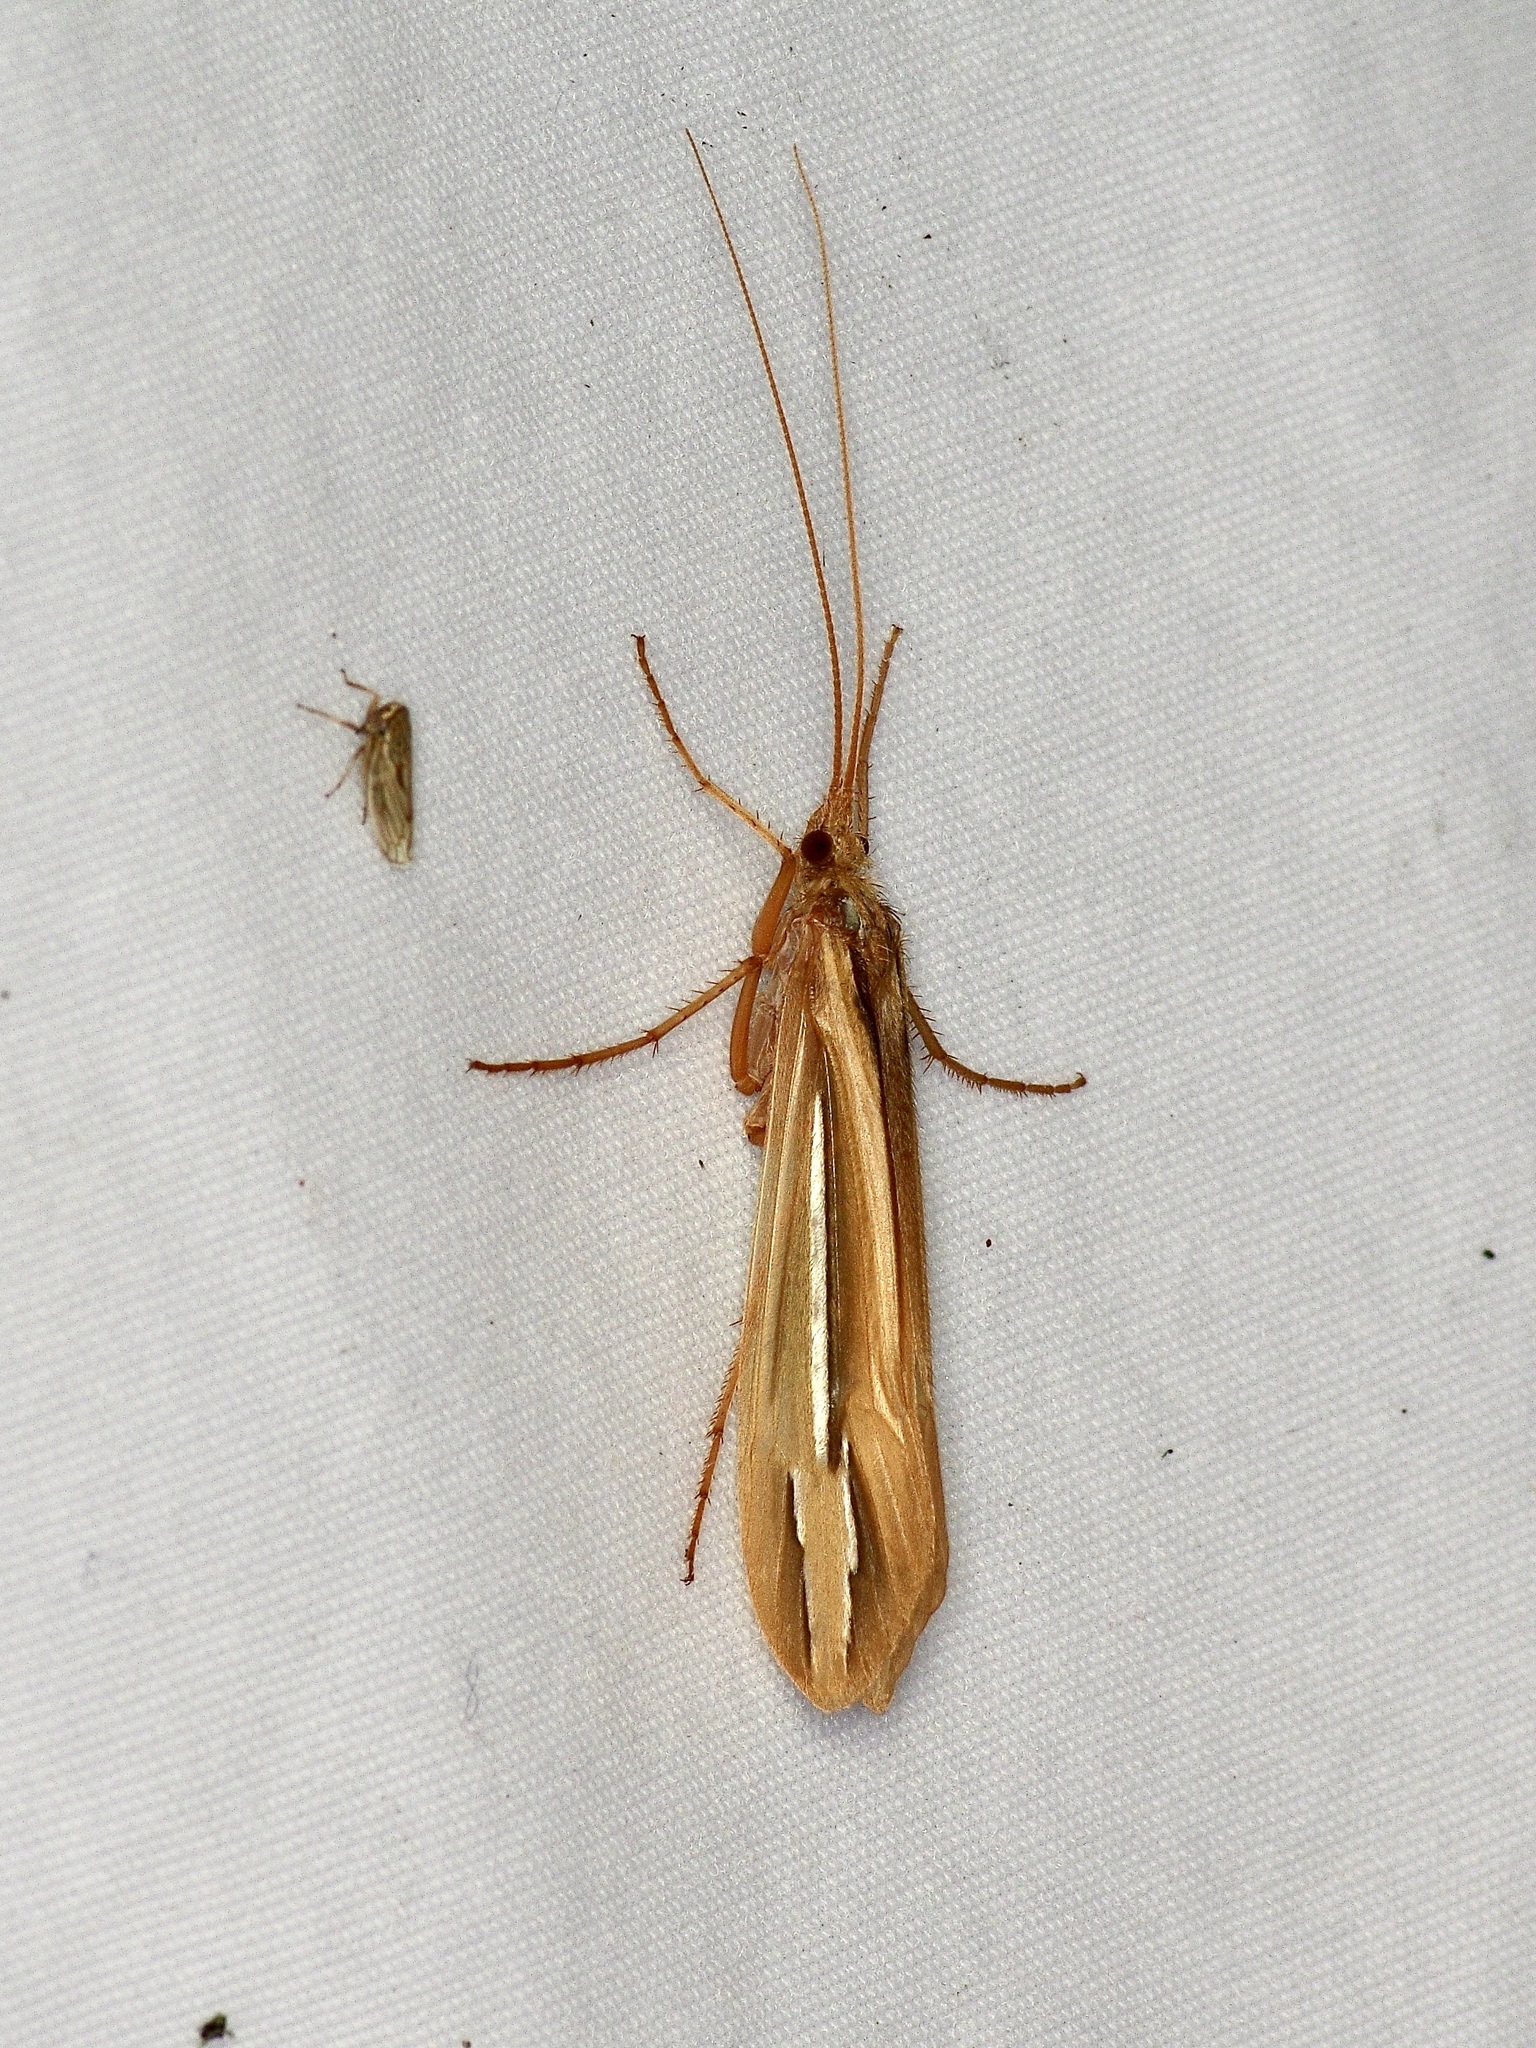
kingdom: Animalia
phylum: Arthropoda
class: Insecta
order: Trichoptera
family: Limnephilidae
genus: Hesperophylax
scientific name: Hesperophylax designatus
